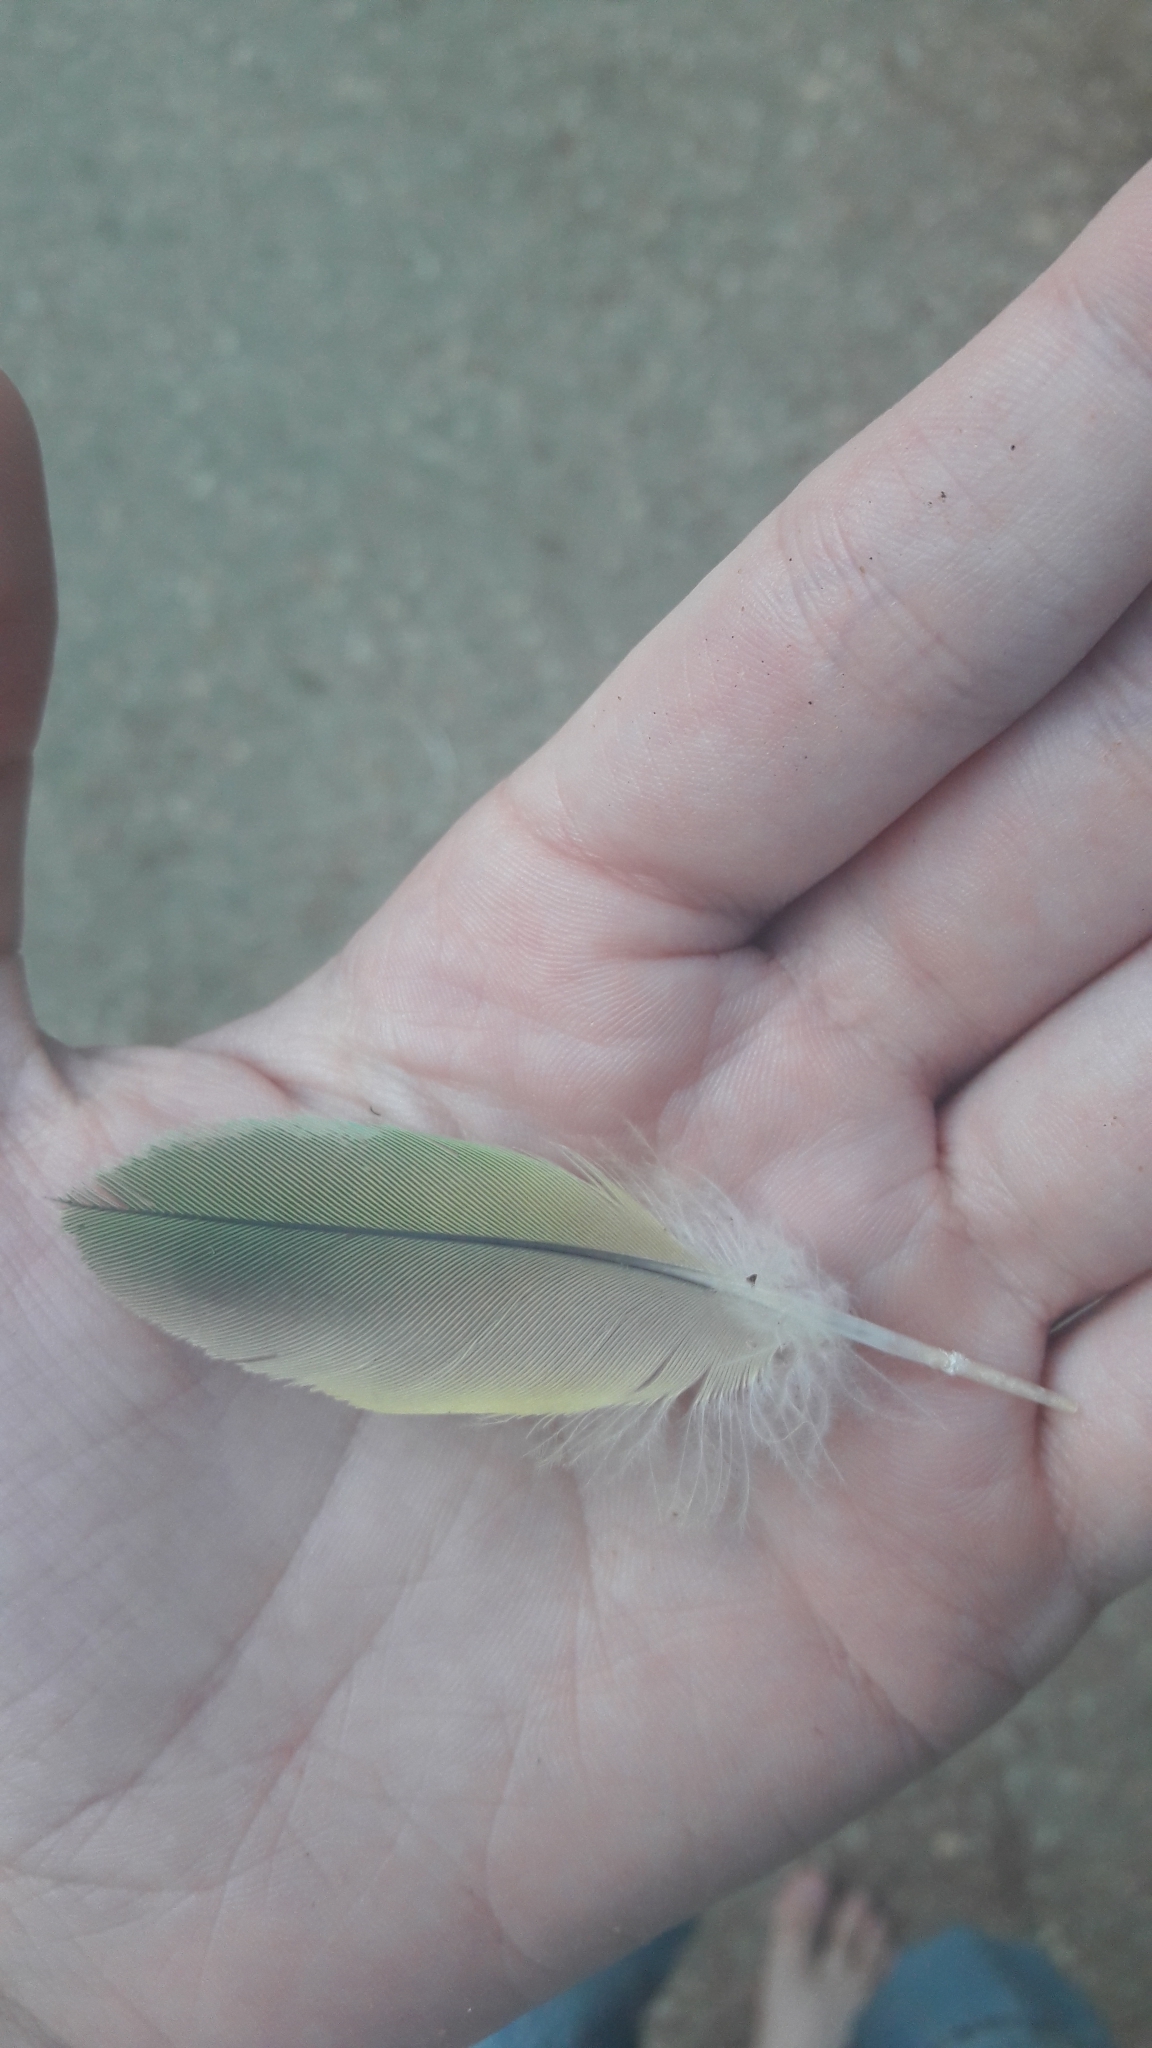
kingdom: Animalia
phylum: Chordata
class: Aves
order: Psittaciformes
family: Psittacidae
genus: Psittacula
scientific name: Psittacula krameri
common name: Rose-ringed parakeet
